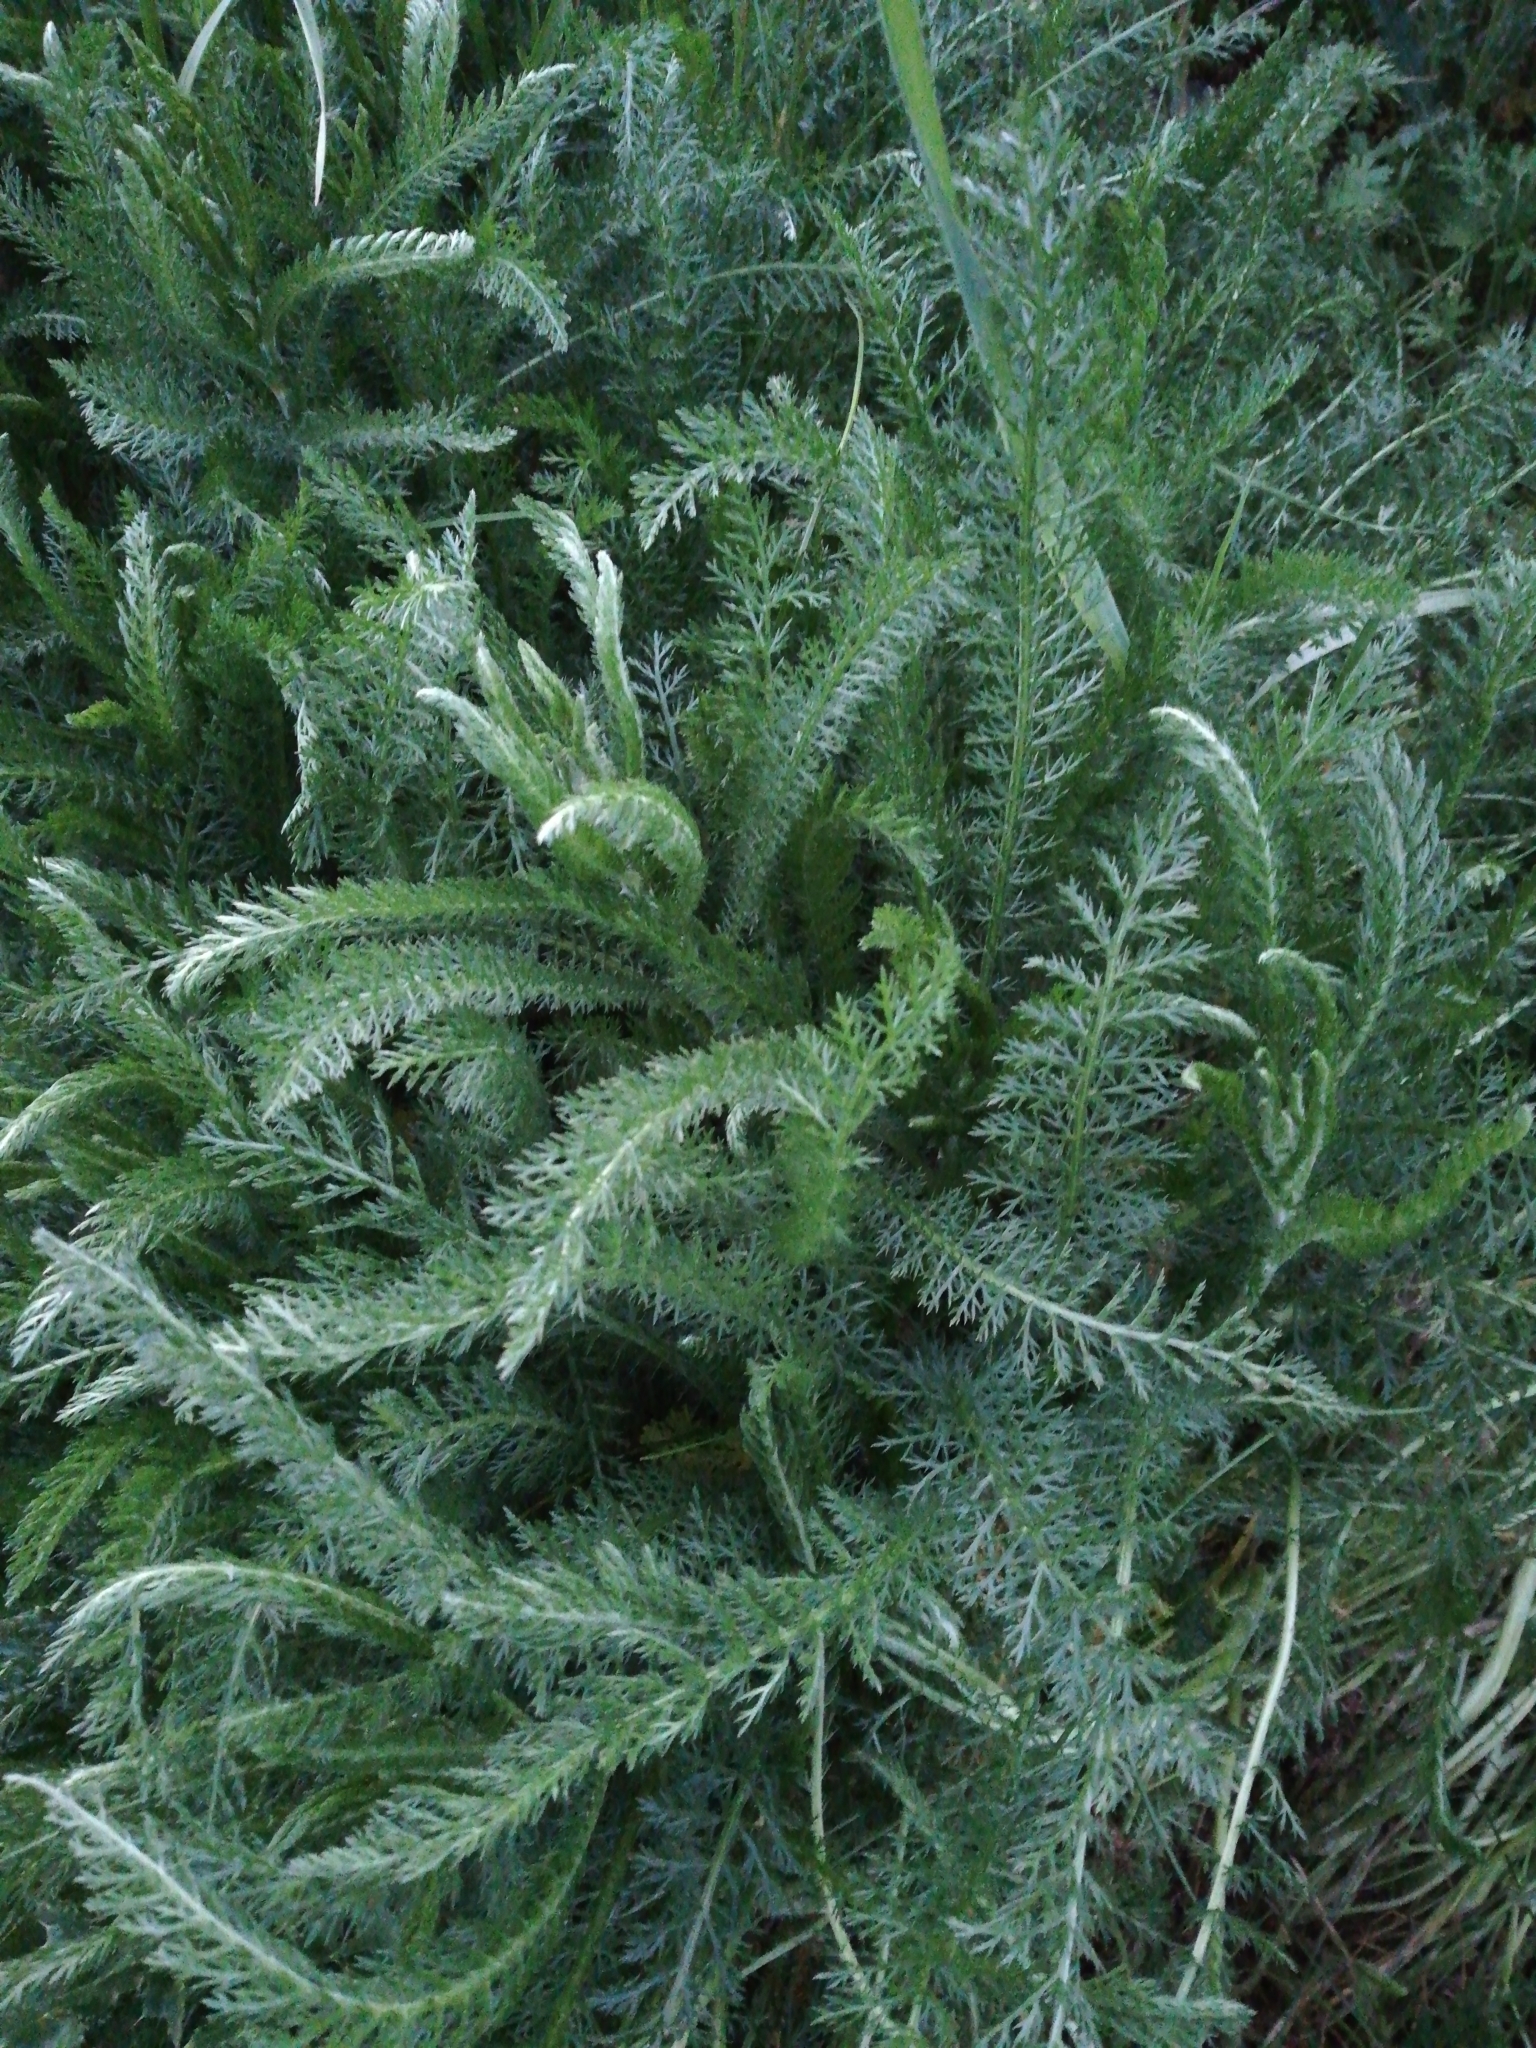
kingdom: Plantae
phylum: Tracheophyta
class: Magnoliopsida
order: Asterales
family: Asteraceae
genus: Achillea
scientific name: Achillea millefolium
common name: Yarrow
